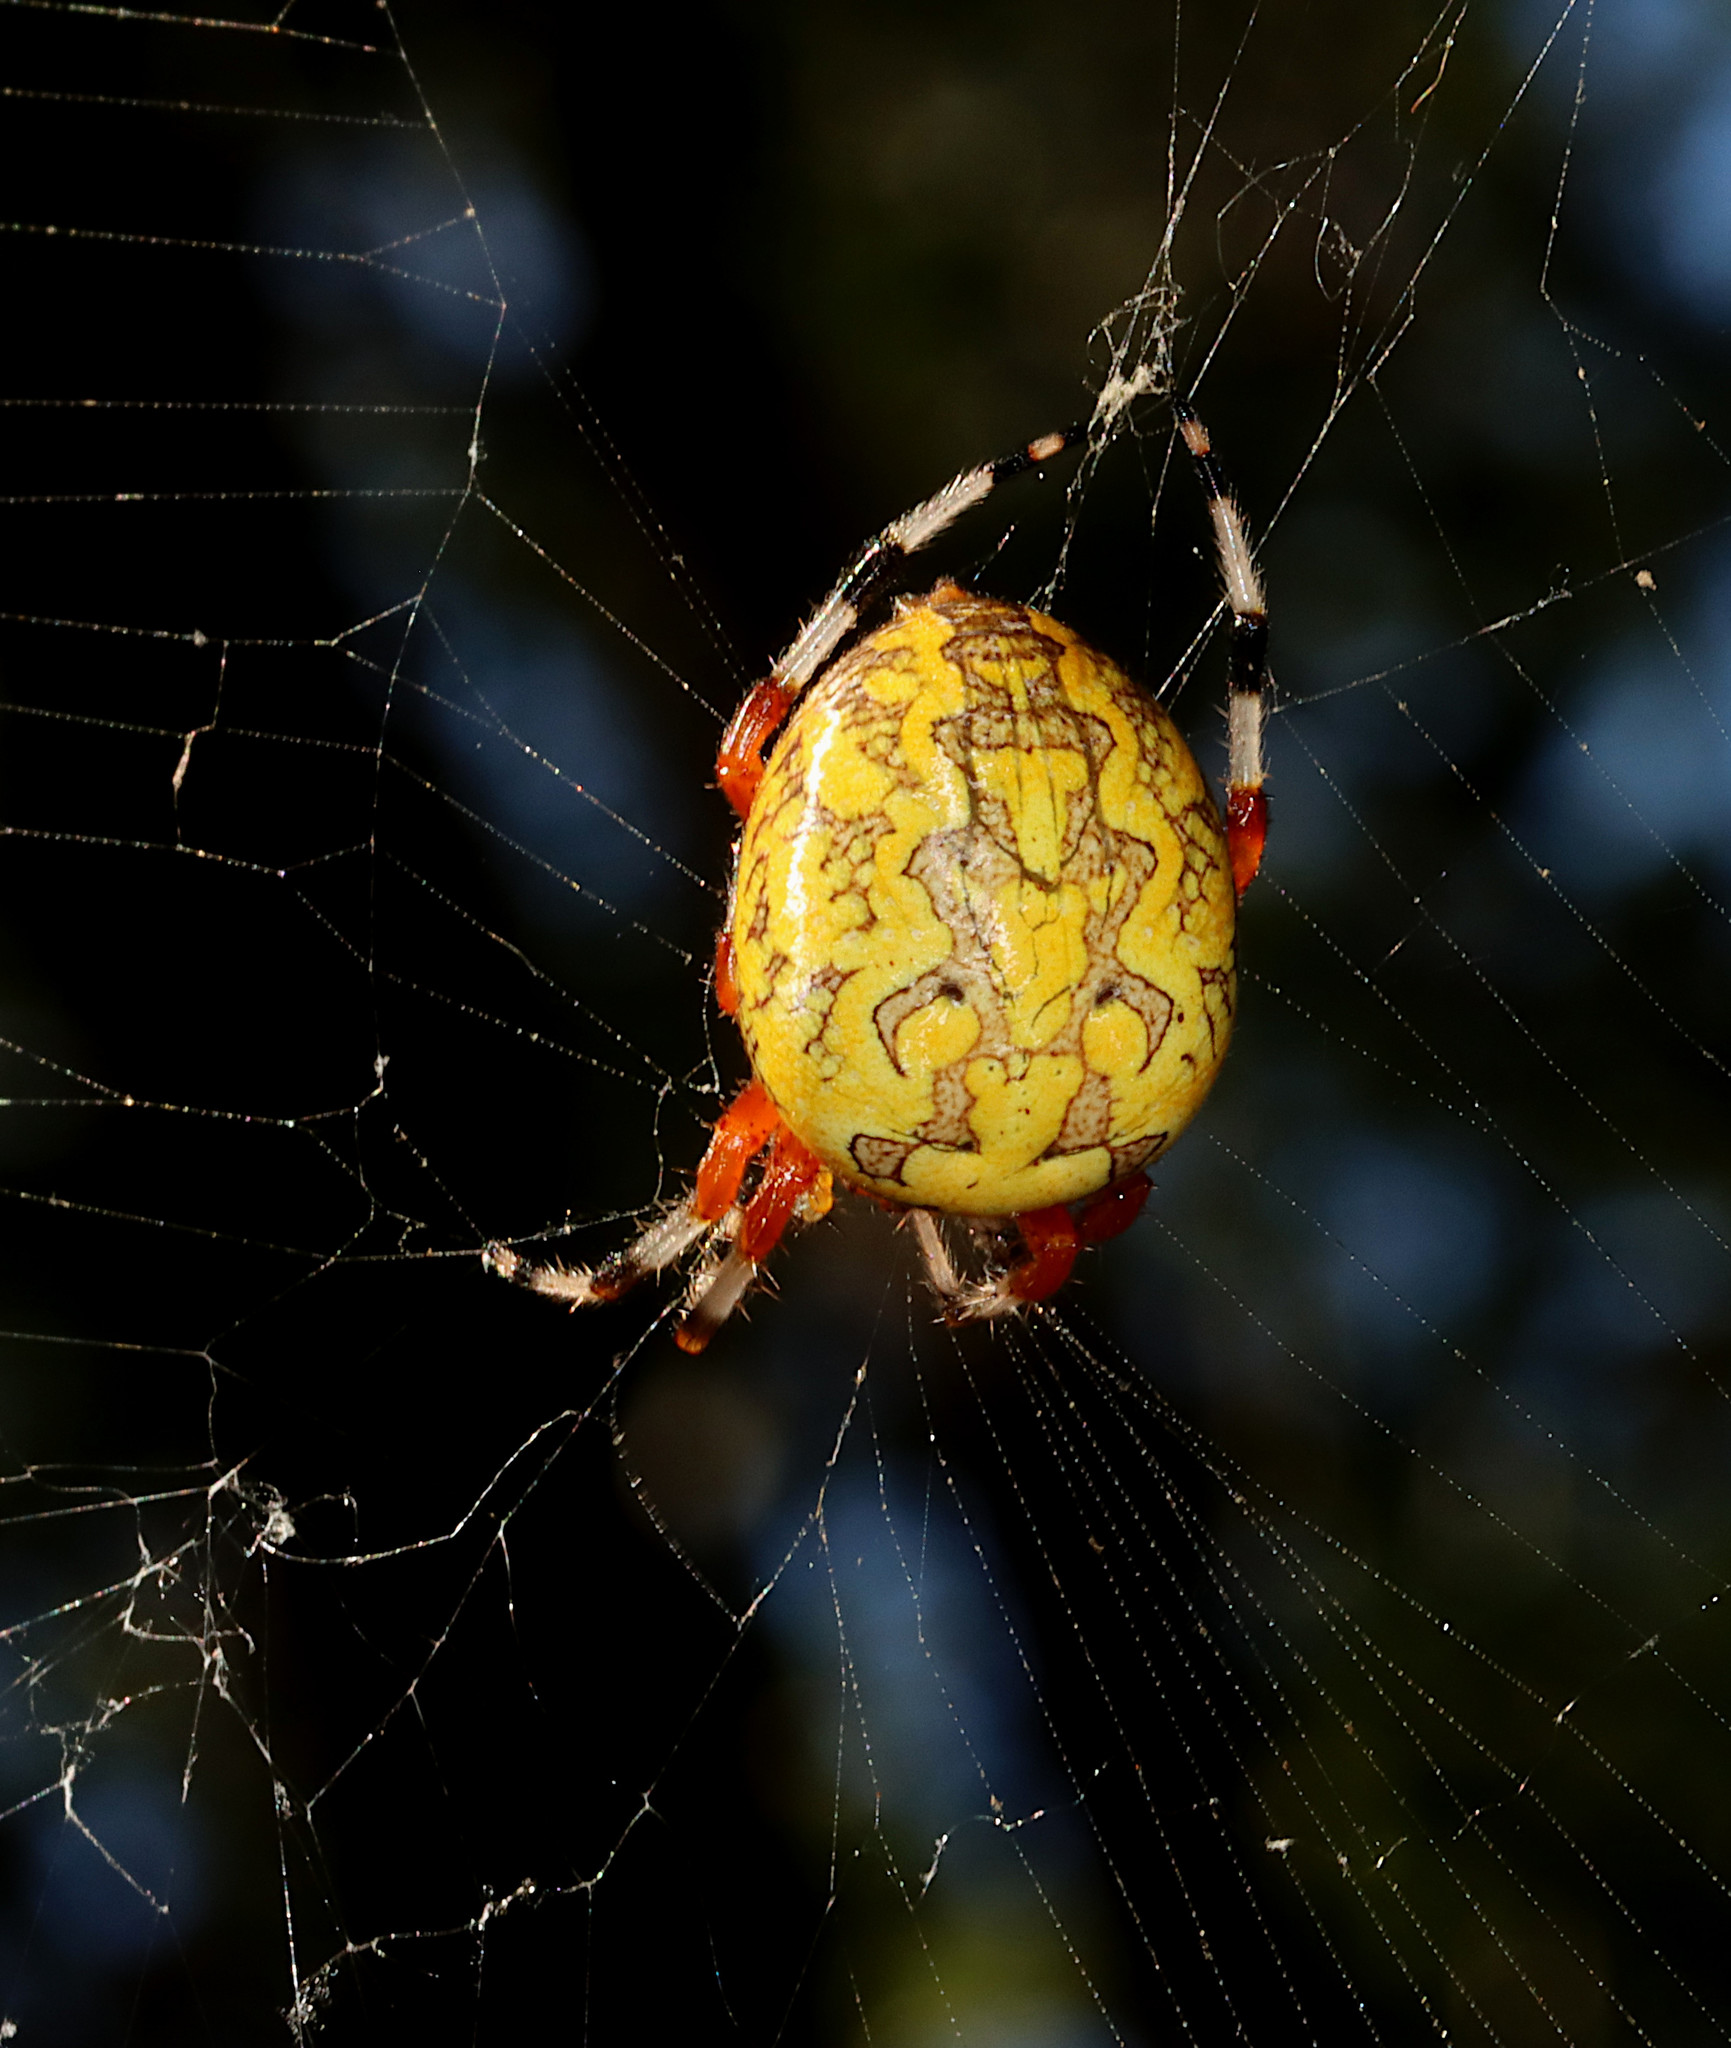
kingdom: Animalia
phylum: Arthropoda
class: Arachnida
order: Araneae
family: Araneidae
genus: Araneus
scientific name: Araneus marmoreus
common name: Marbled orbweaver
